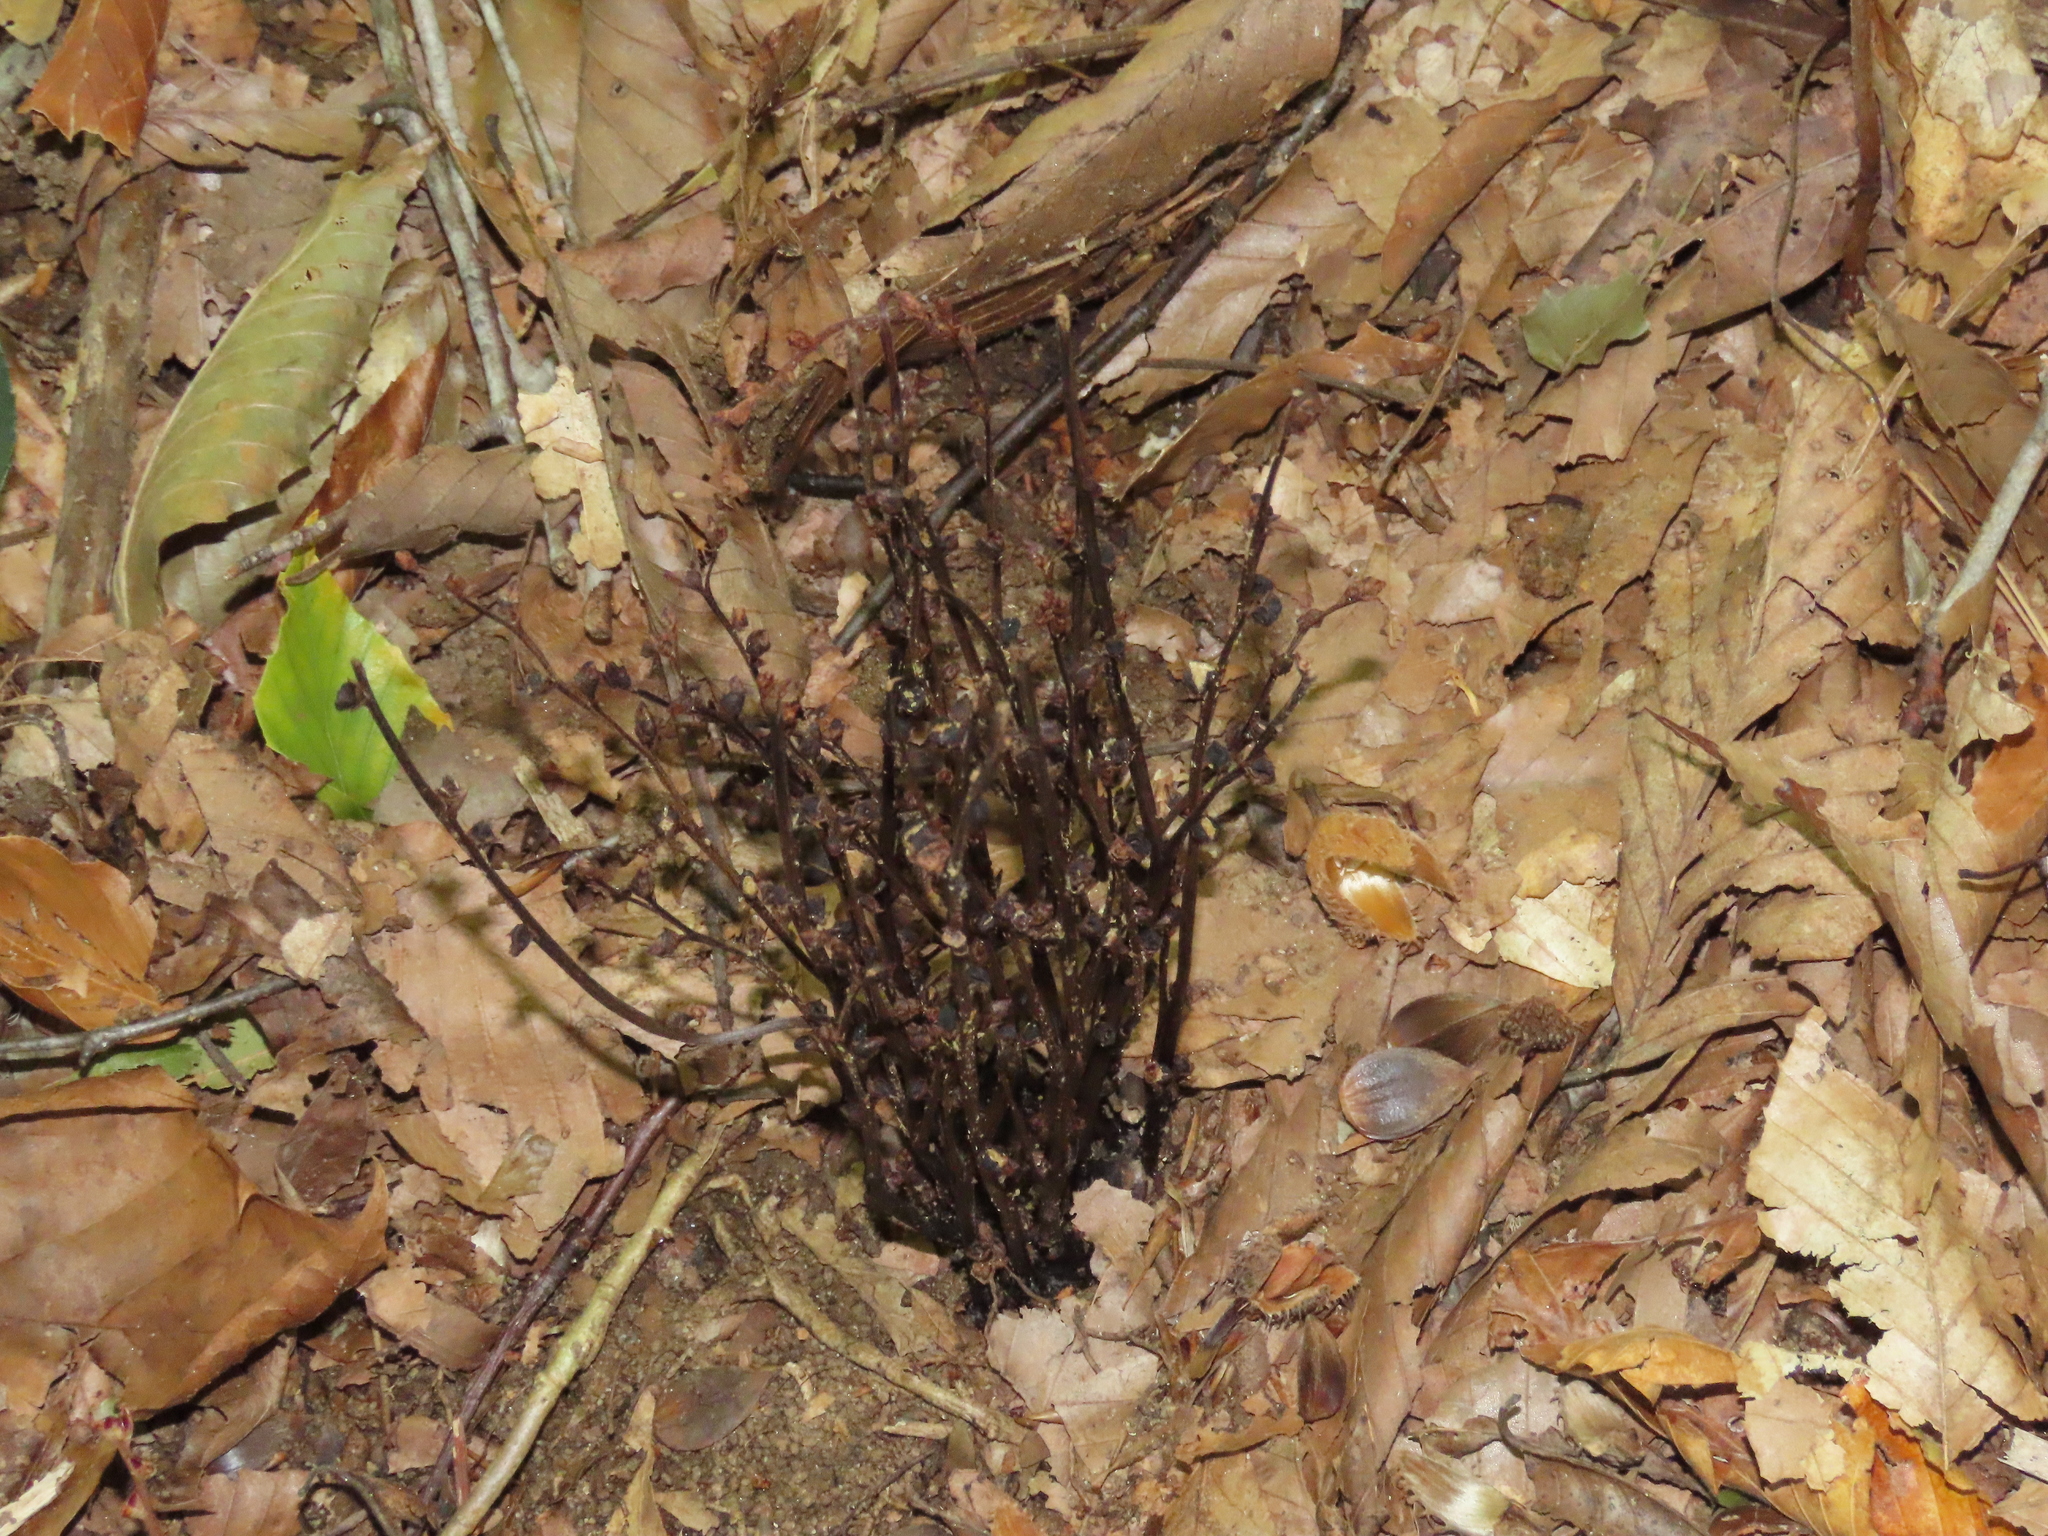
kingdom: Plantae
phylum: Tracheophyta
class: Magnoliopsida
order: Lamiales
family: Orobanchaceae
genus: Epifagus
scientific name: Epifagus virginiana
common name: Beechdrops
